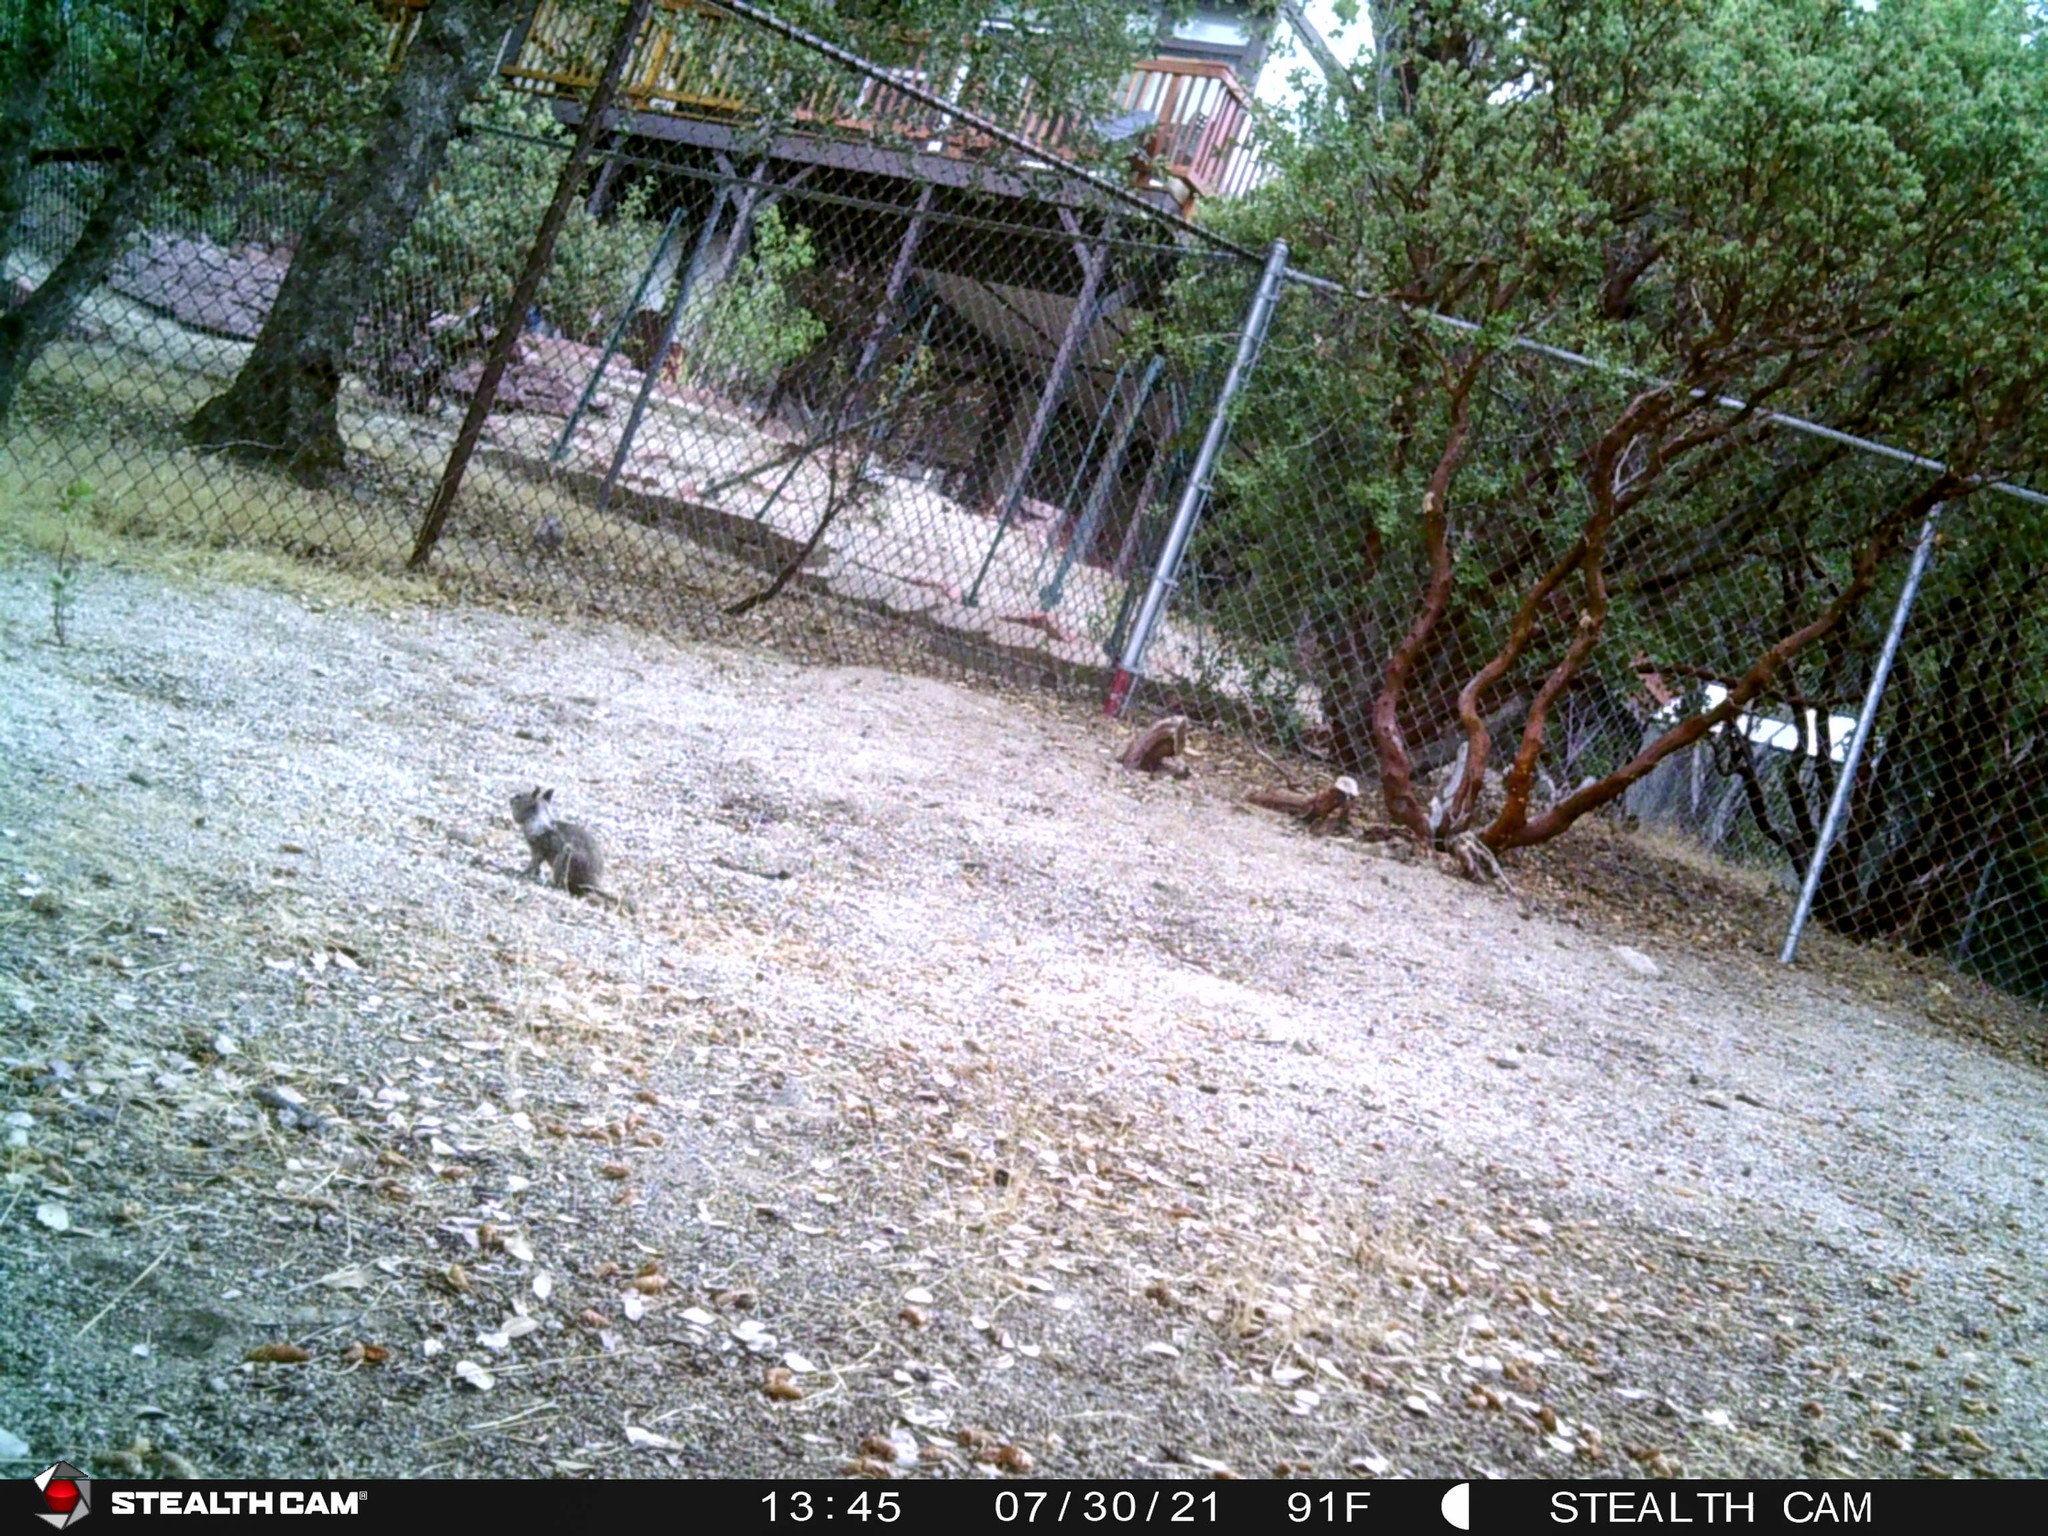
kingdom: Animalia
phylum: Chordata
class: Mammalia
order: Rodentia
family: Sciuridae
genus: Otospermophilus
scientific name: Otospermophilus beecheyi
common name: California ground squirrel
